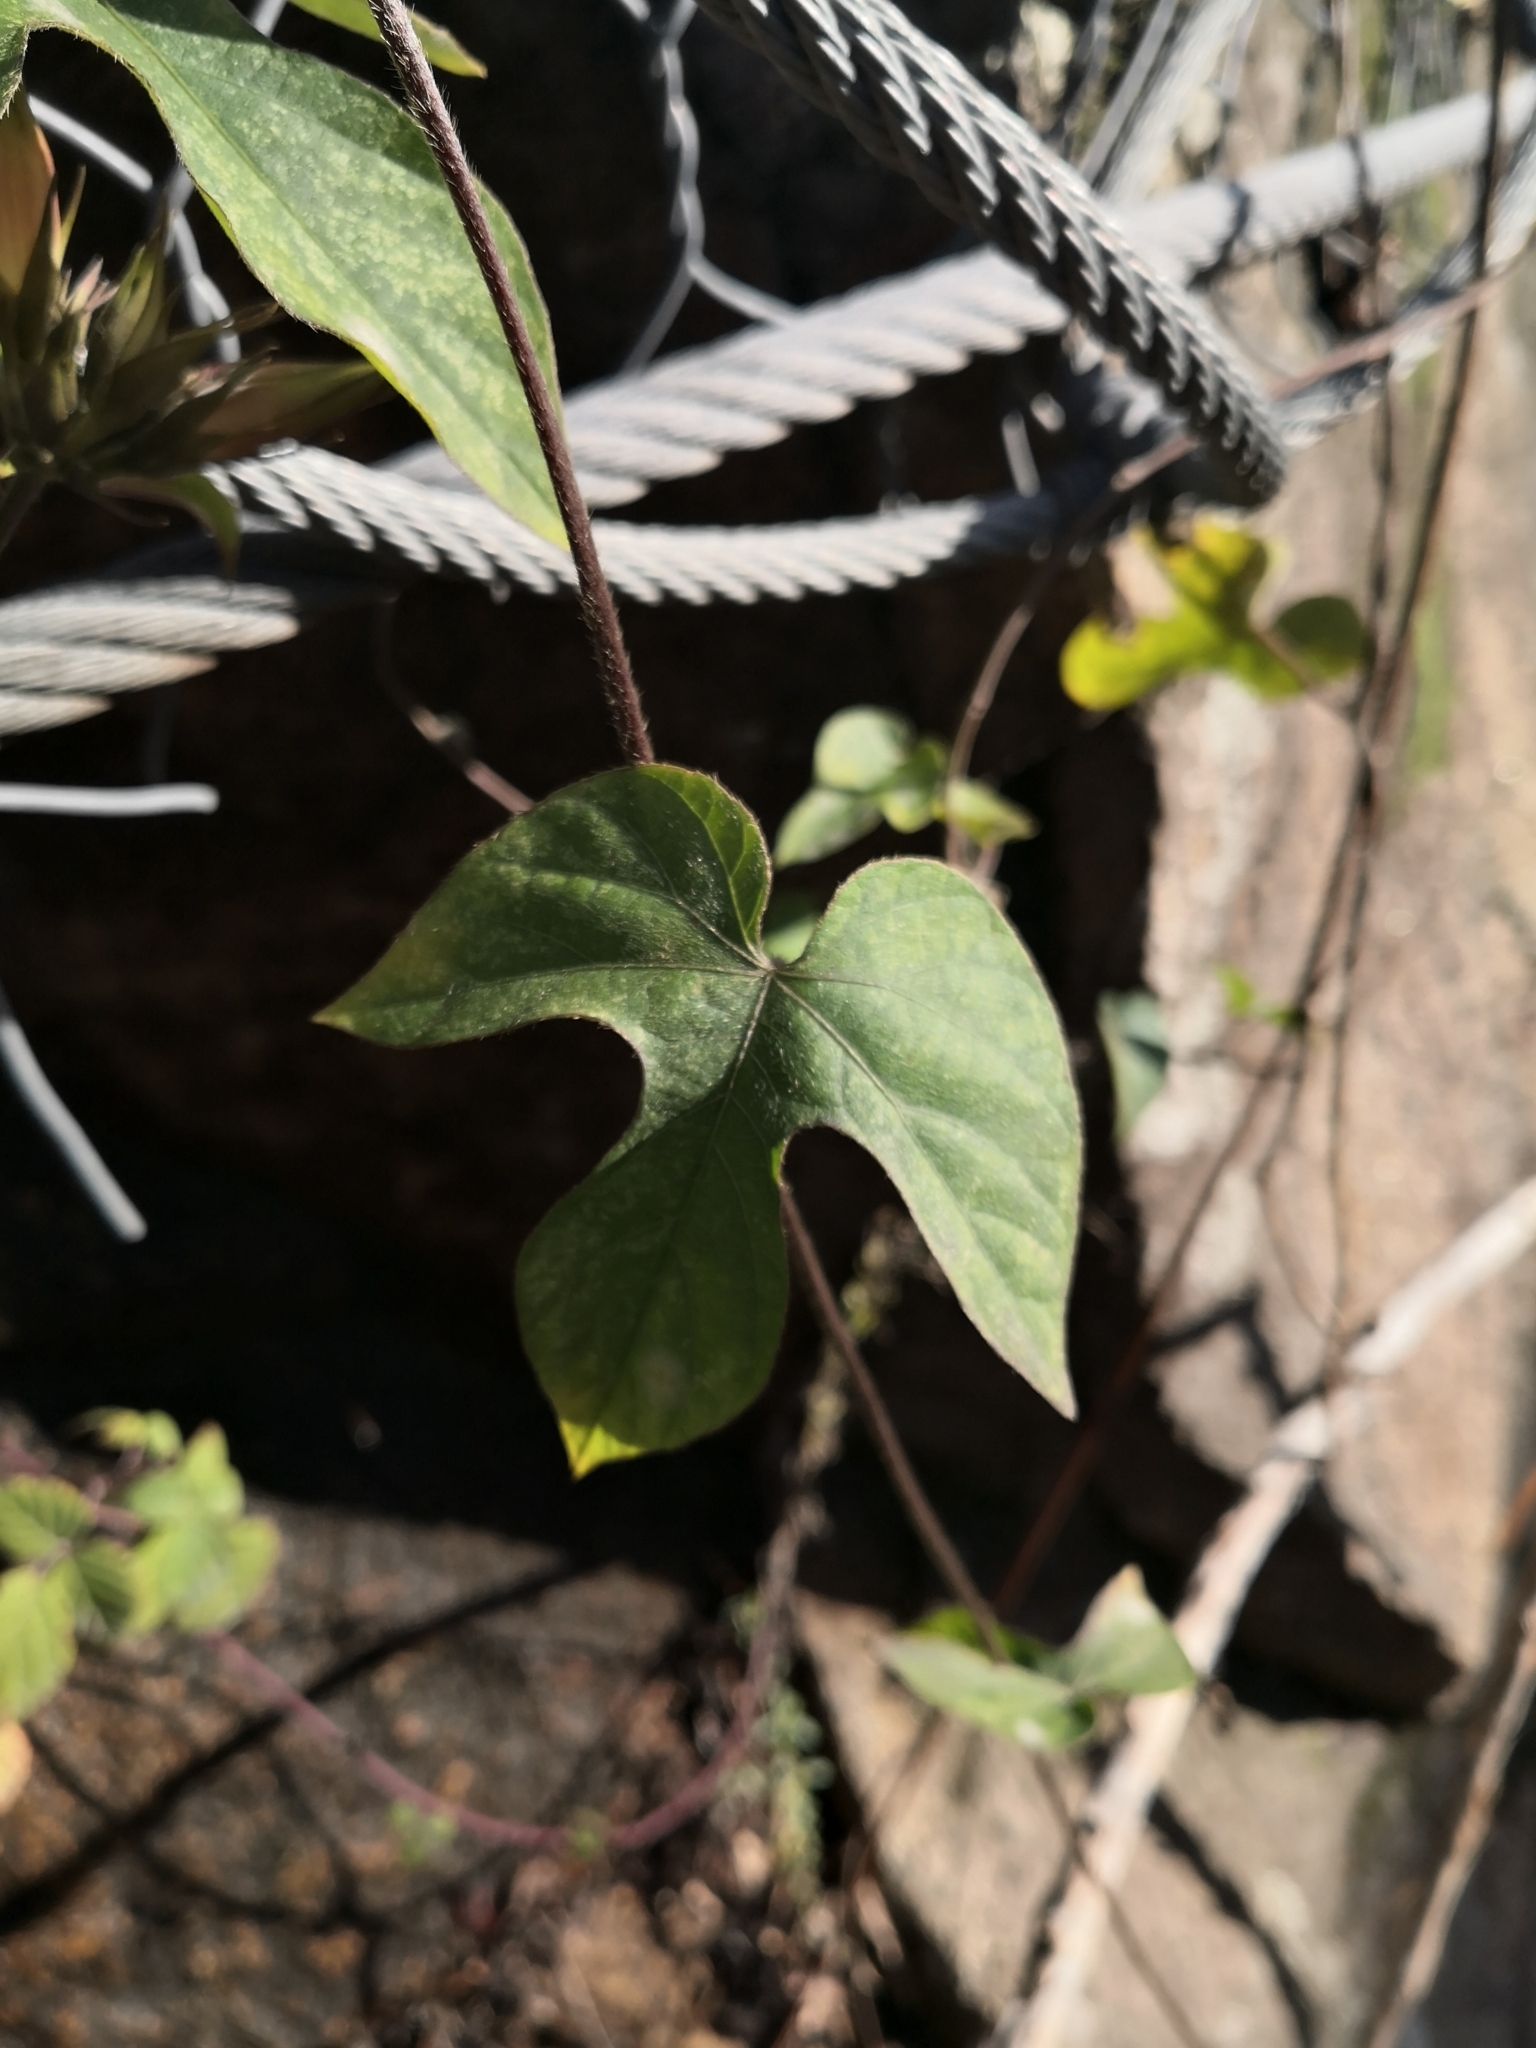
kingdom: Plantae
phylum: Tracheophyta
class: Magnoliopsida
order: Solanales
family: Convolvulaceae
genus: Ipomoea
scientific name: Ipomoea indica
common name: Blue dawnflower
